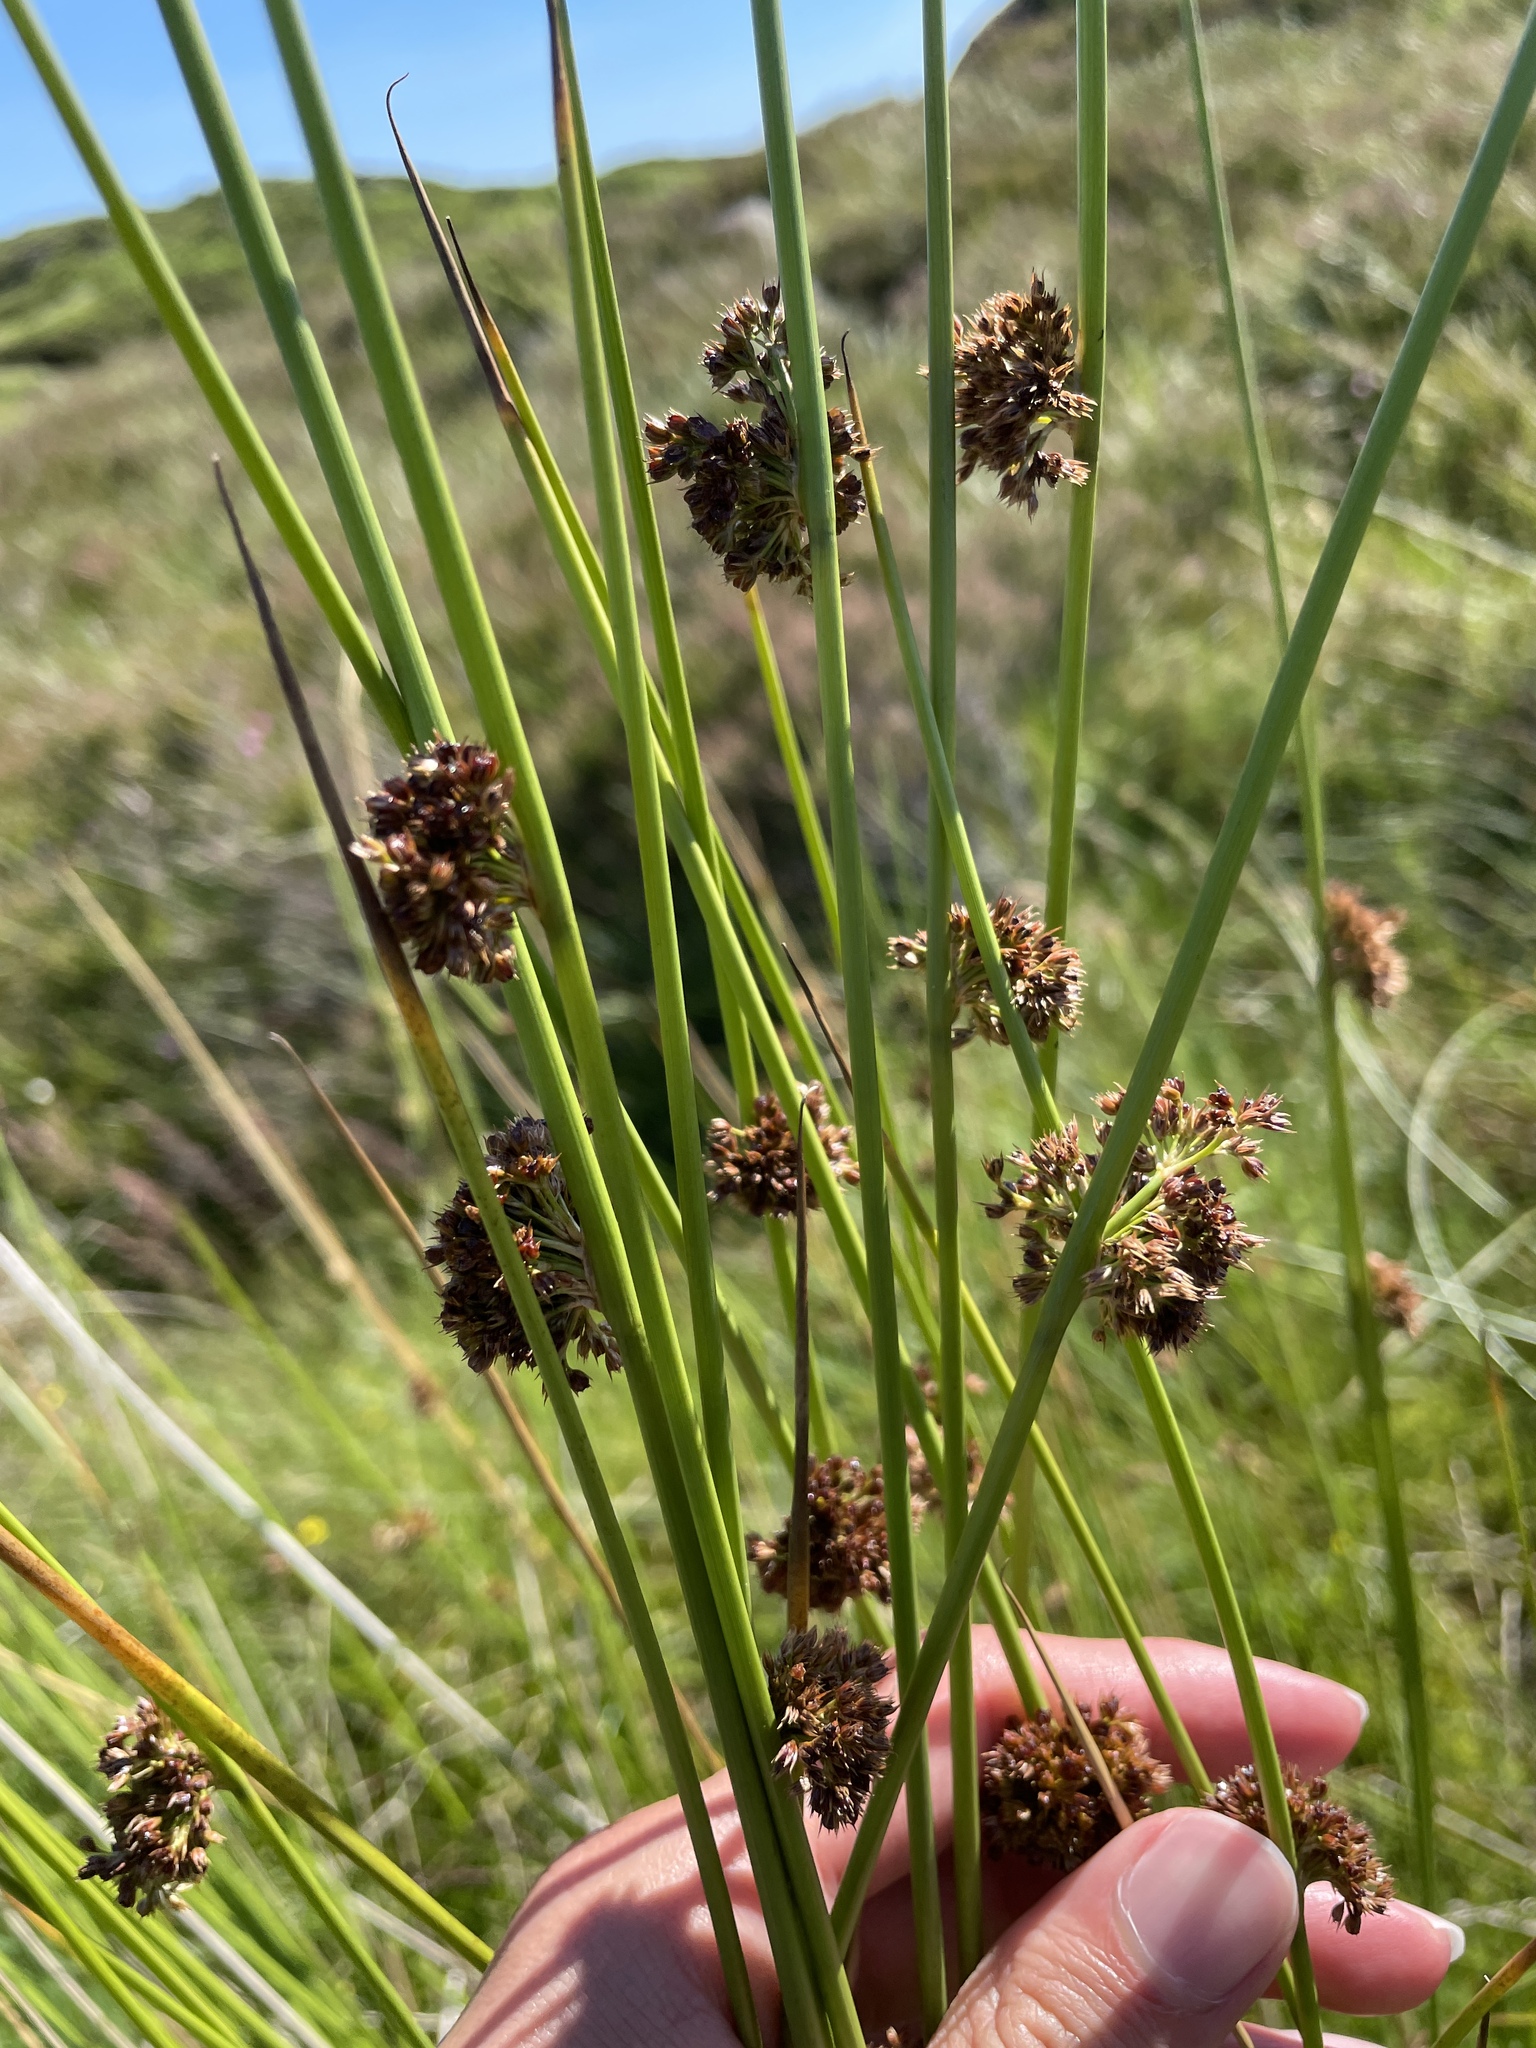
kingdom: Plantae
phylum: Tracheophyta
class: Liliopsida
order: Poales
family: Juncaceae
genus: Juncus
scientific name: Juncus effusus
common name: Soft rush
